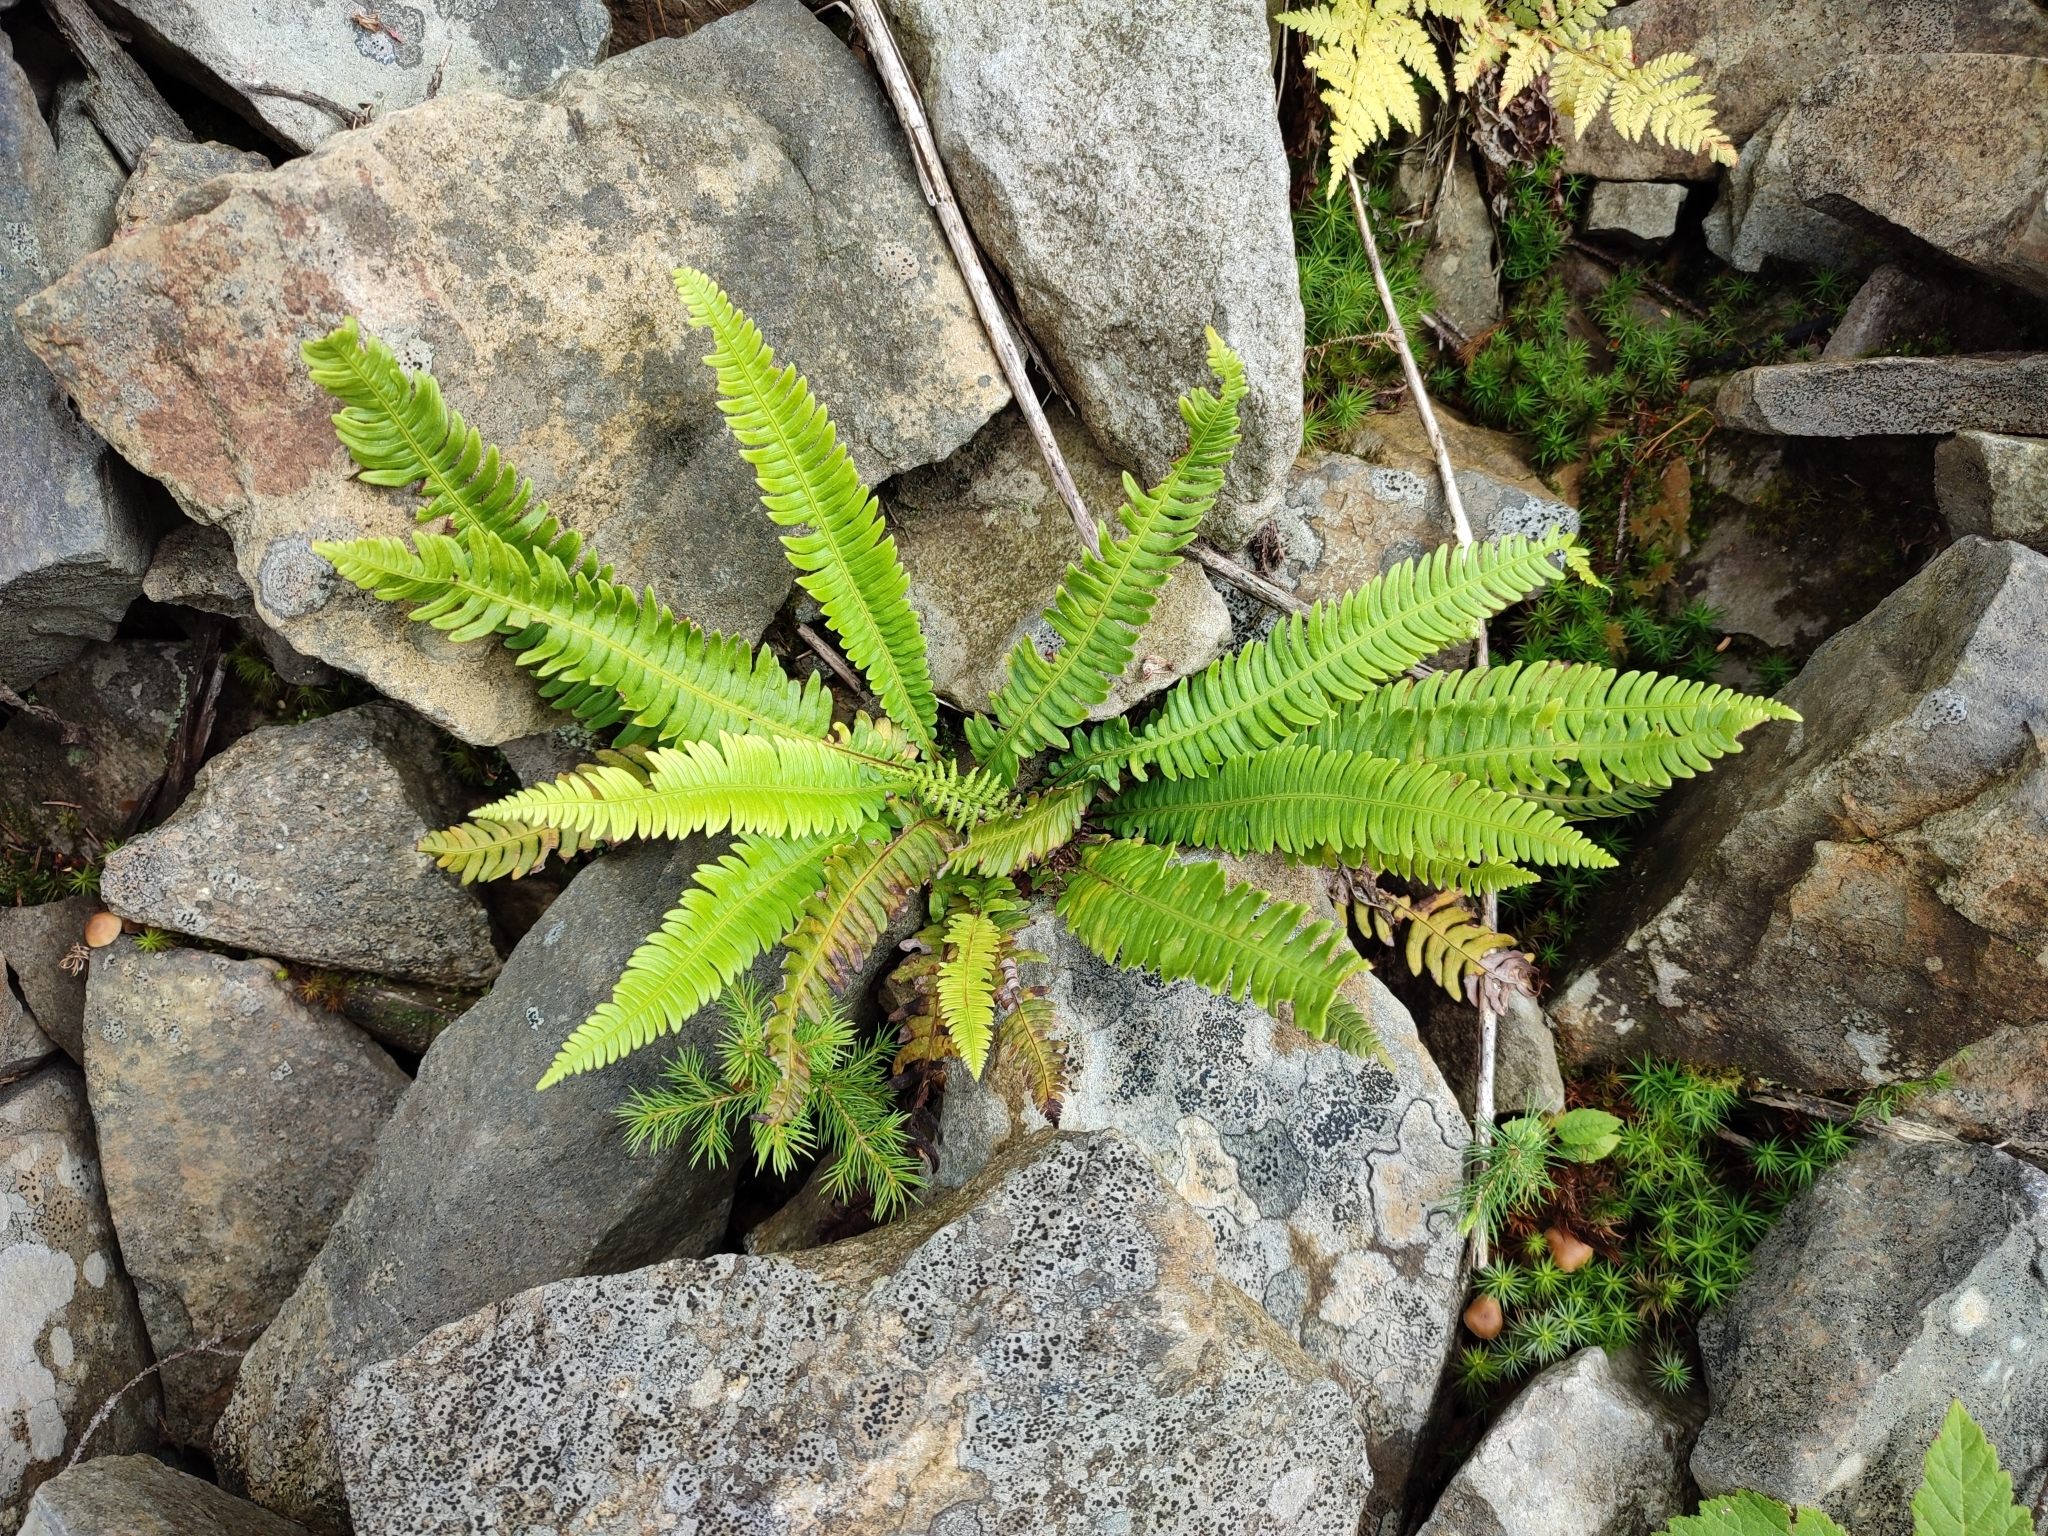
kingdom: Plantae
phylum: Tracheophyta
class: Polypodiopsida
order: Polypodiales
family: Blechnaceae
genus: Struthiopteris
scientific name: Struthiopteris spicant
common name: Deer fern
